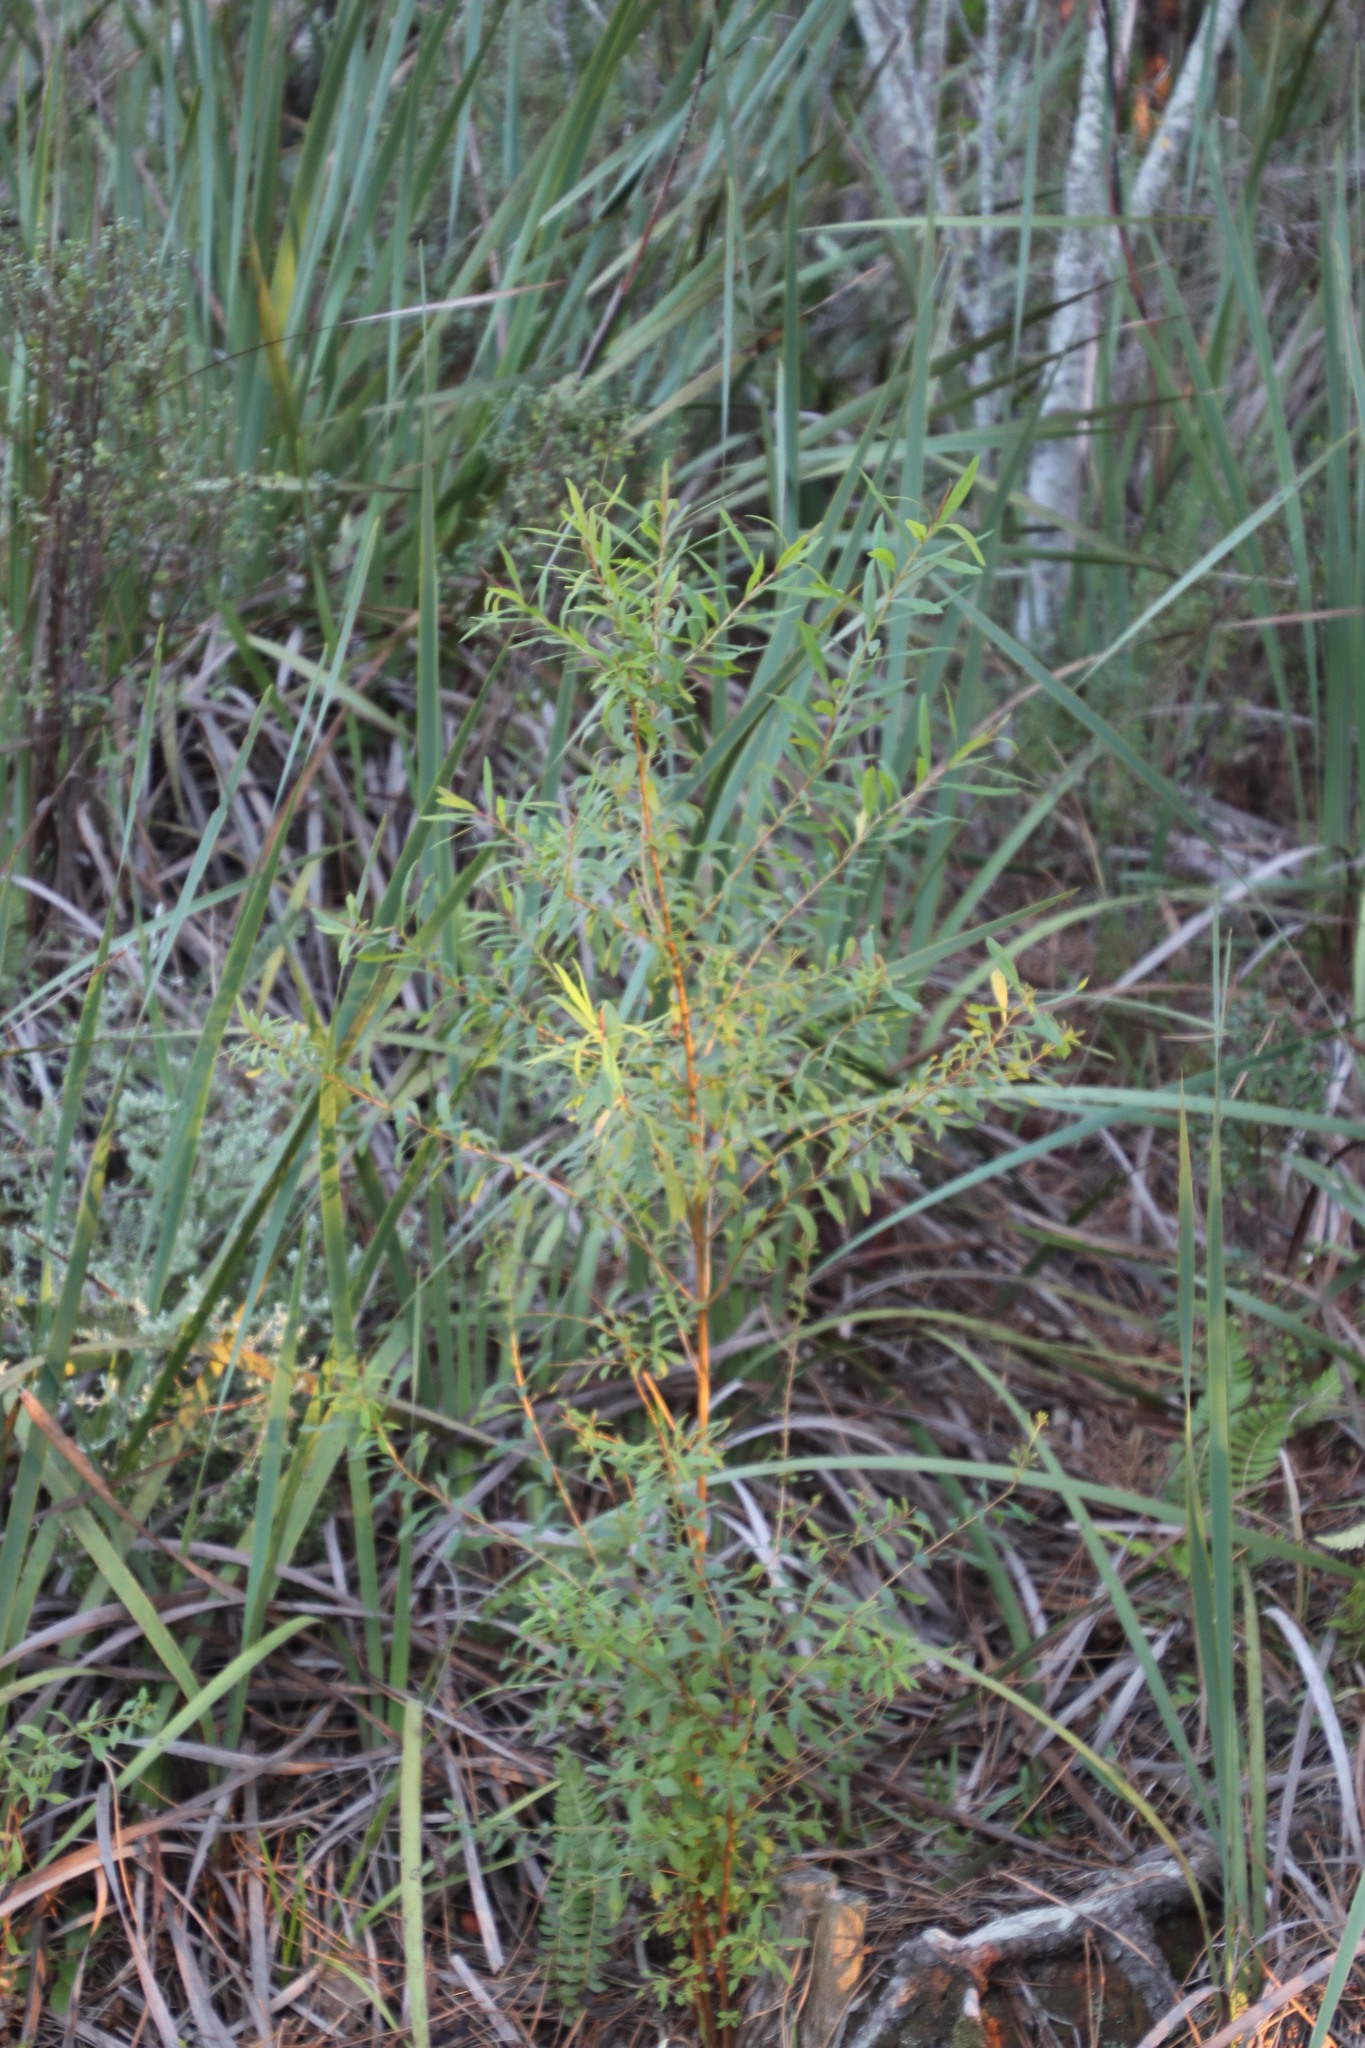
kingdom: Plantae
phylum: Tracheophyta
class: Magnoliopsida
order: Malpighiales
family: Hypericaceae
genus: Hypericum
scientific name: Hypericum canariense
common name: Canary island st. johnswort
